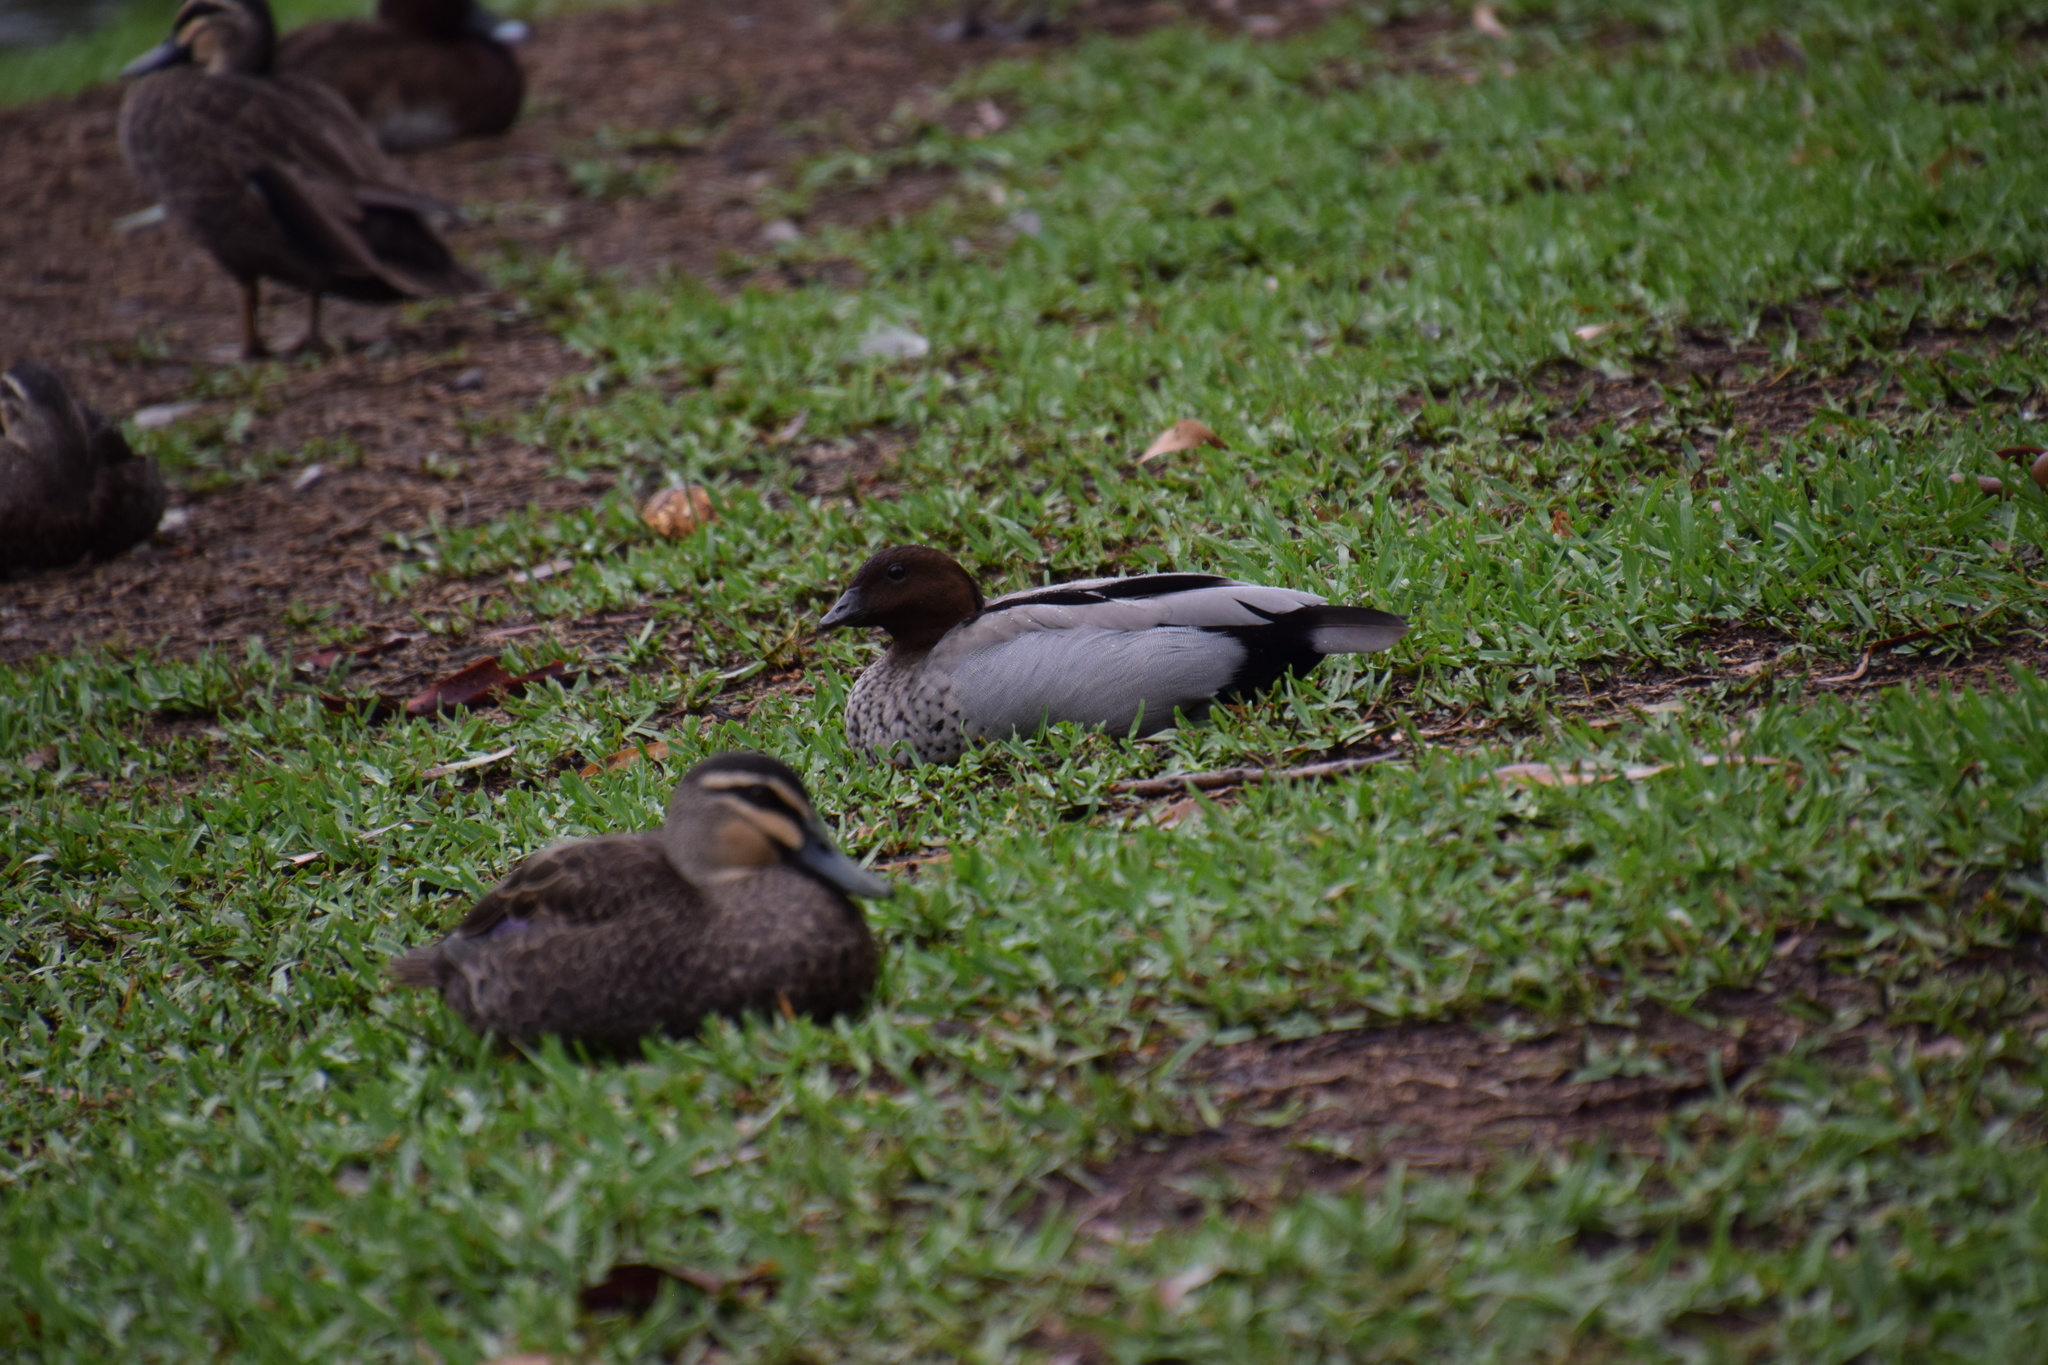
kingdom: Animalia
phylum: Chordata
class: Aves
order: Anseriformes
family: Anatidae
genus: Chenonetta
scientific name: Chenonetta jubata
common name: Maned duck
